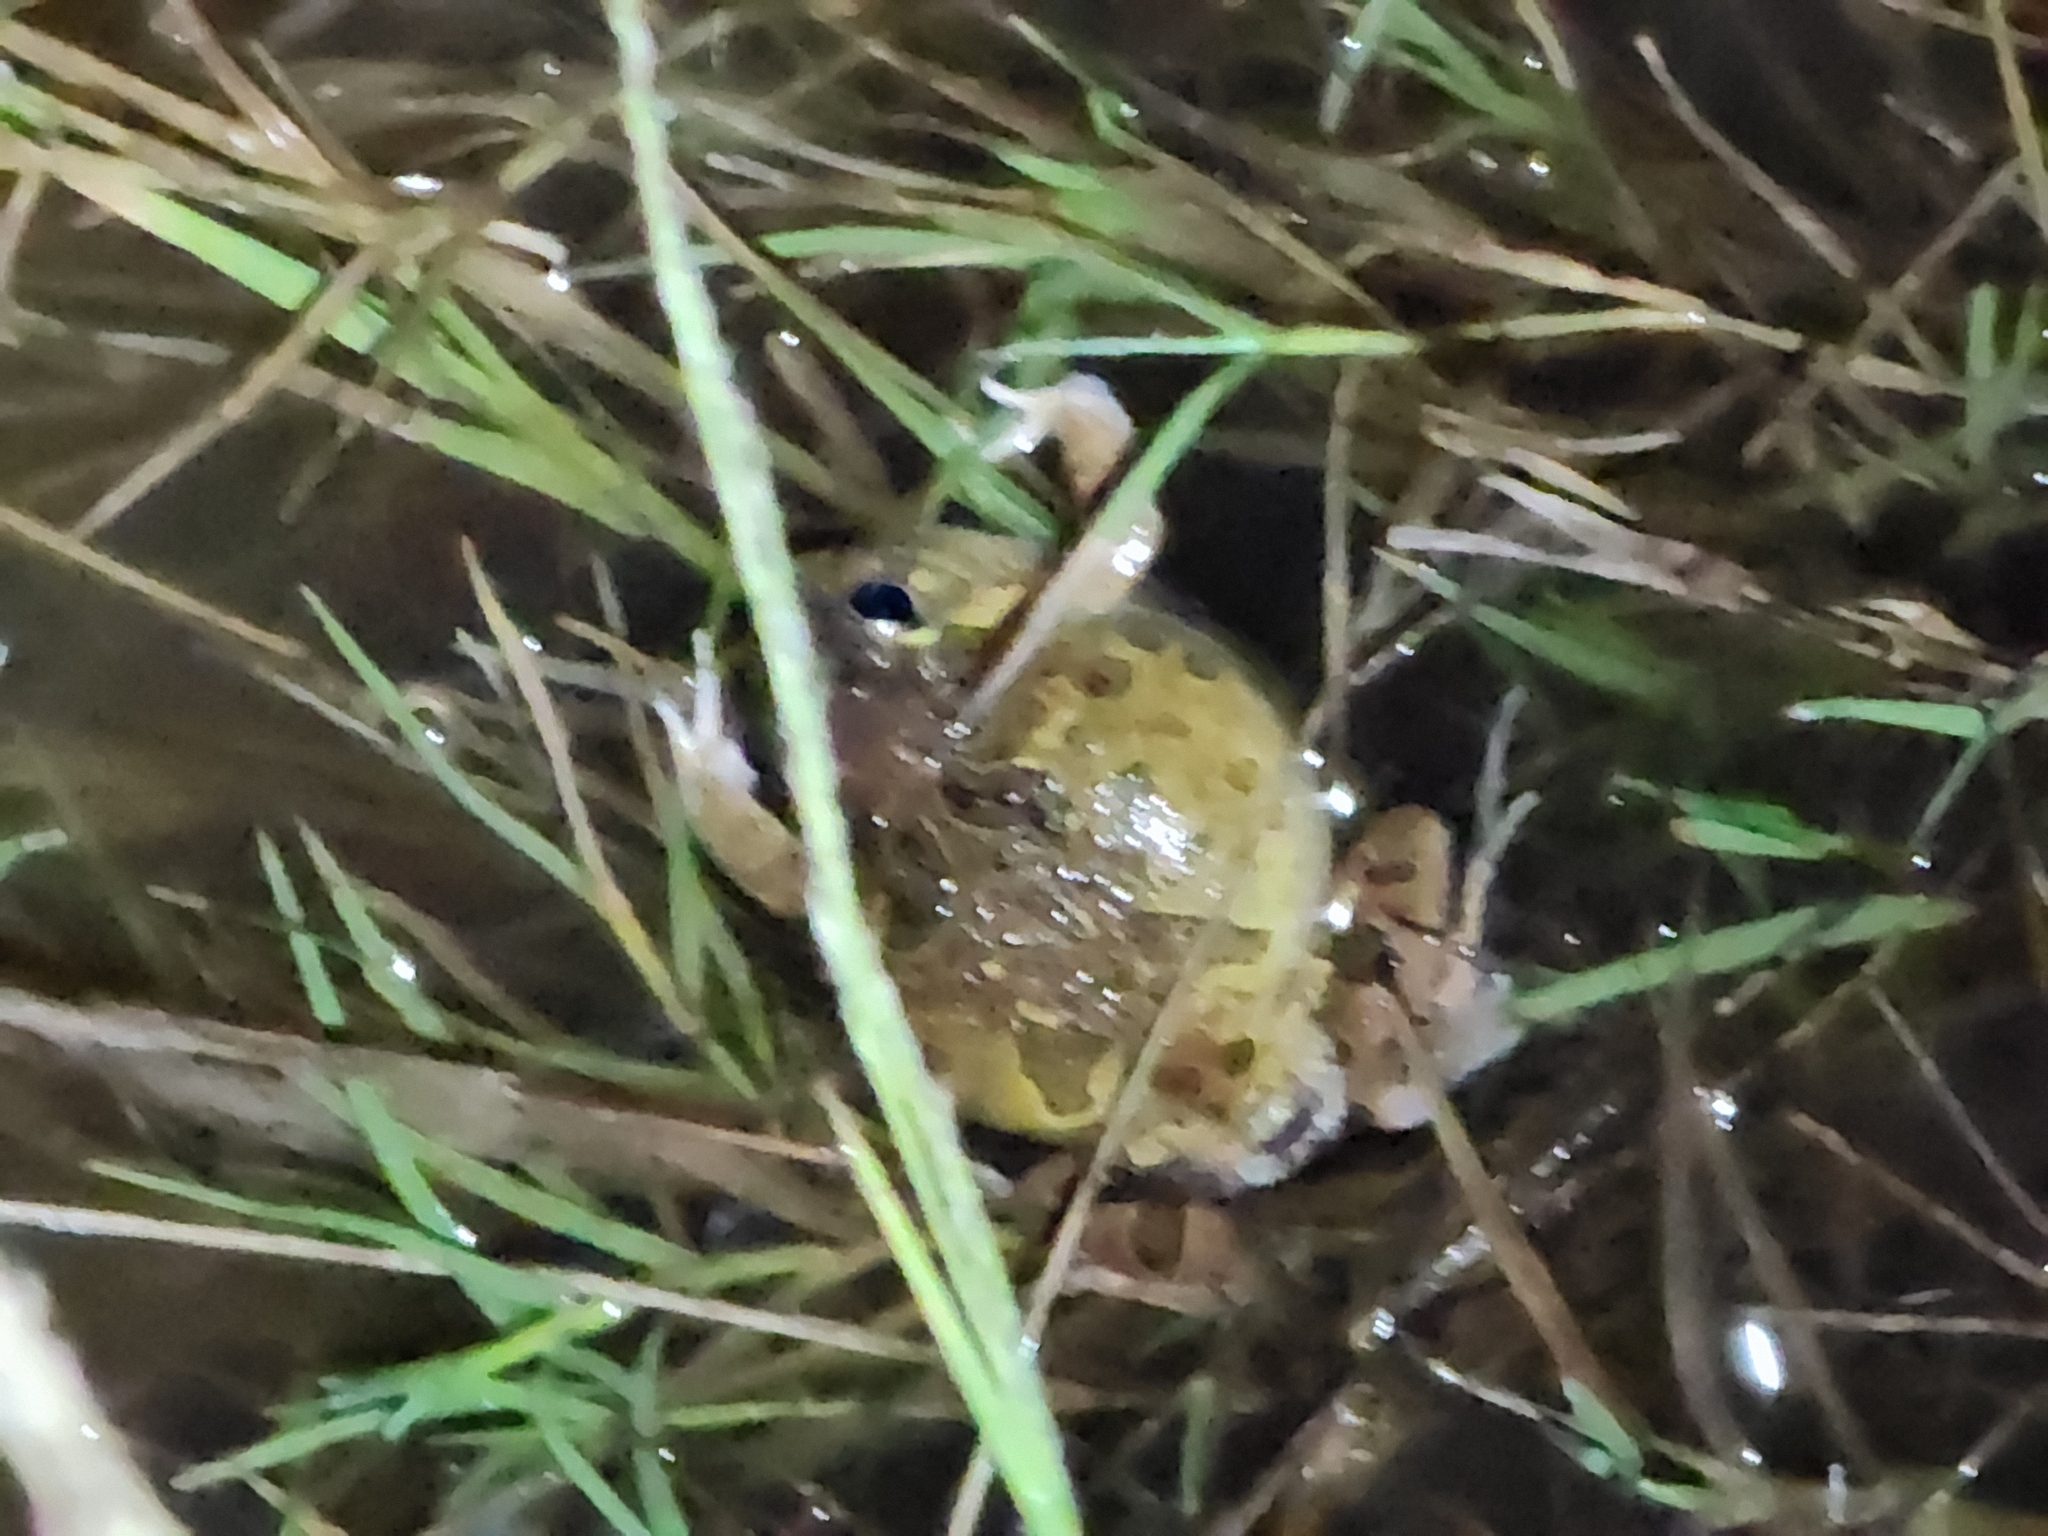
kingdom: Animalia
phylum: Chordata
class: Amphibia
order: Anura
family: Limnodynastidae
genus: Platyplectrum
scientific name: Platyplectrum ornatum
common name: Ornate burrowing frog
